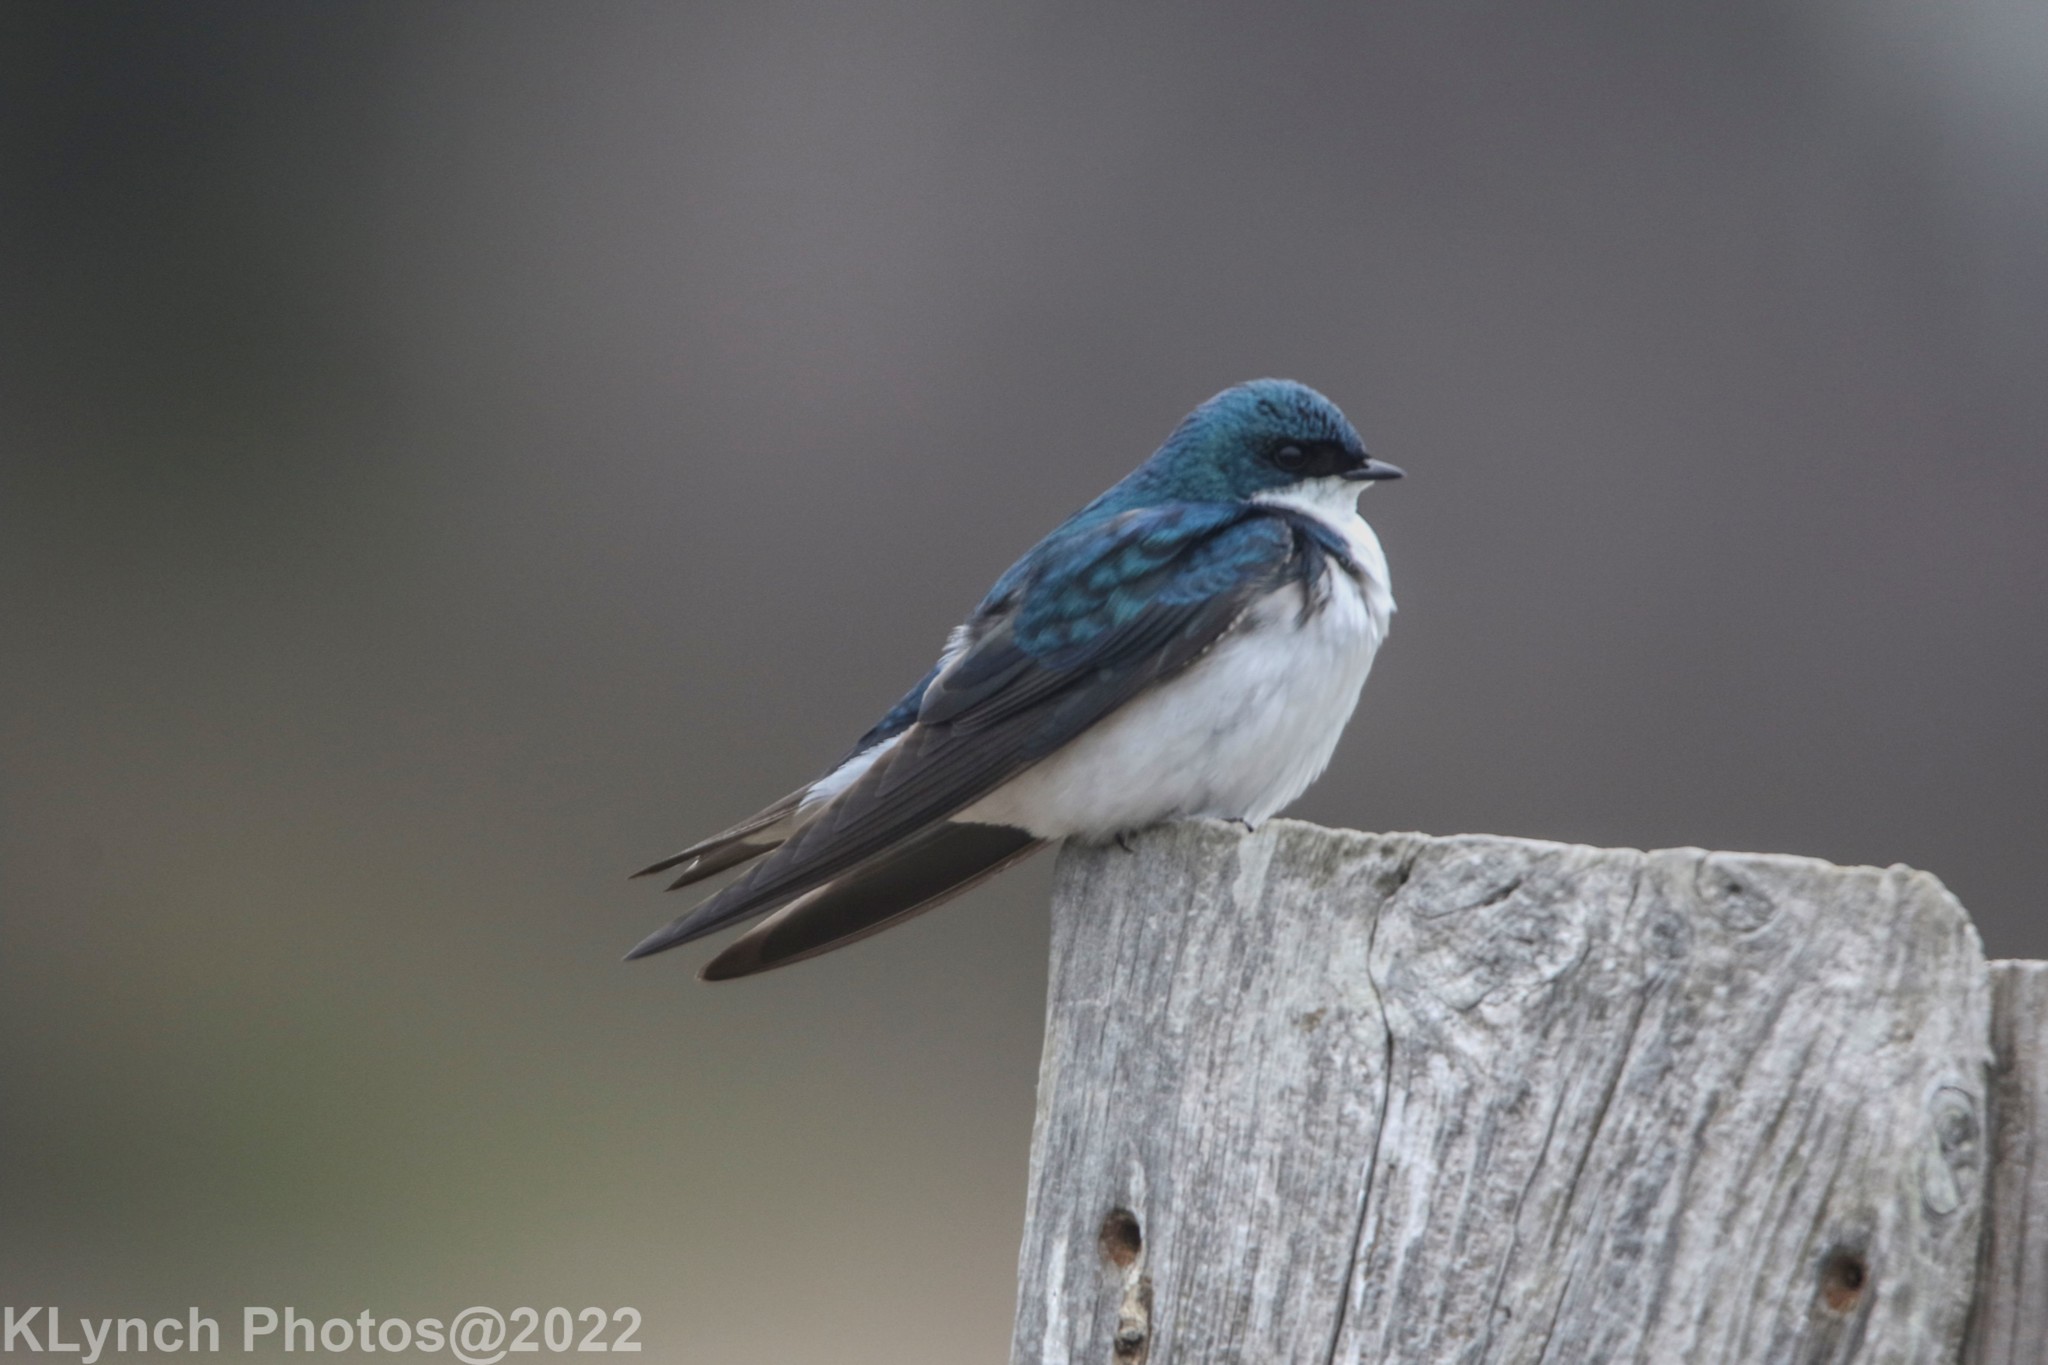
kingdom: Animalia
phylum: Chordata
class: Aves
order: Passeriformes
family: Hirundinidae
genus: Tachycineta
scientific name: Tachycineta bicolor
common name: Tree swallow
